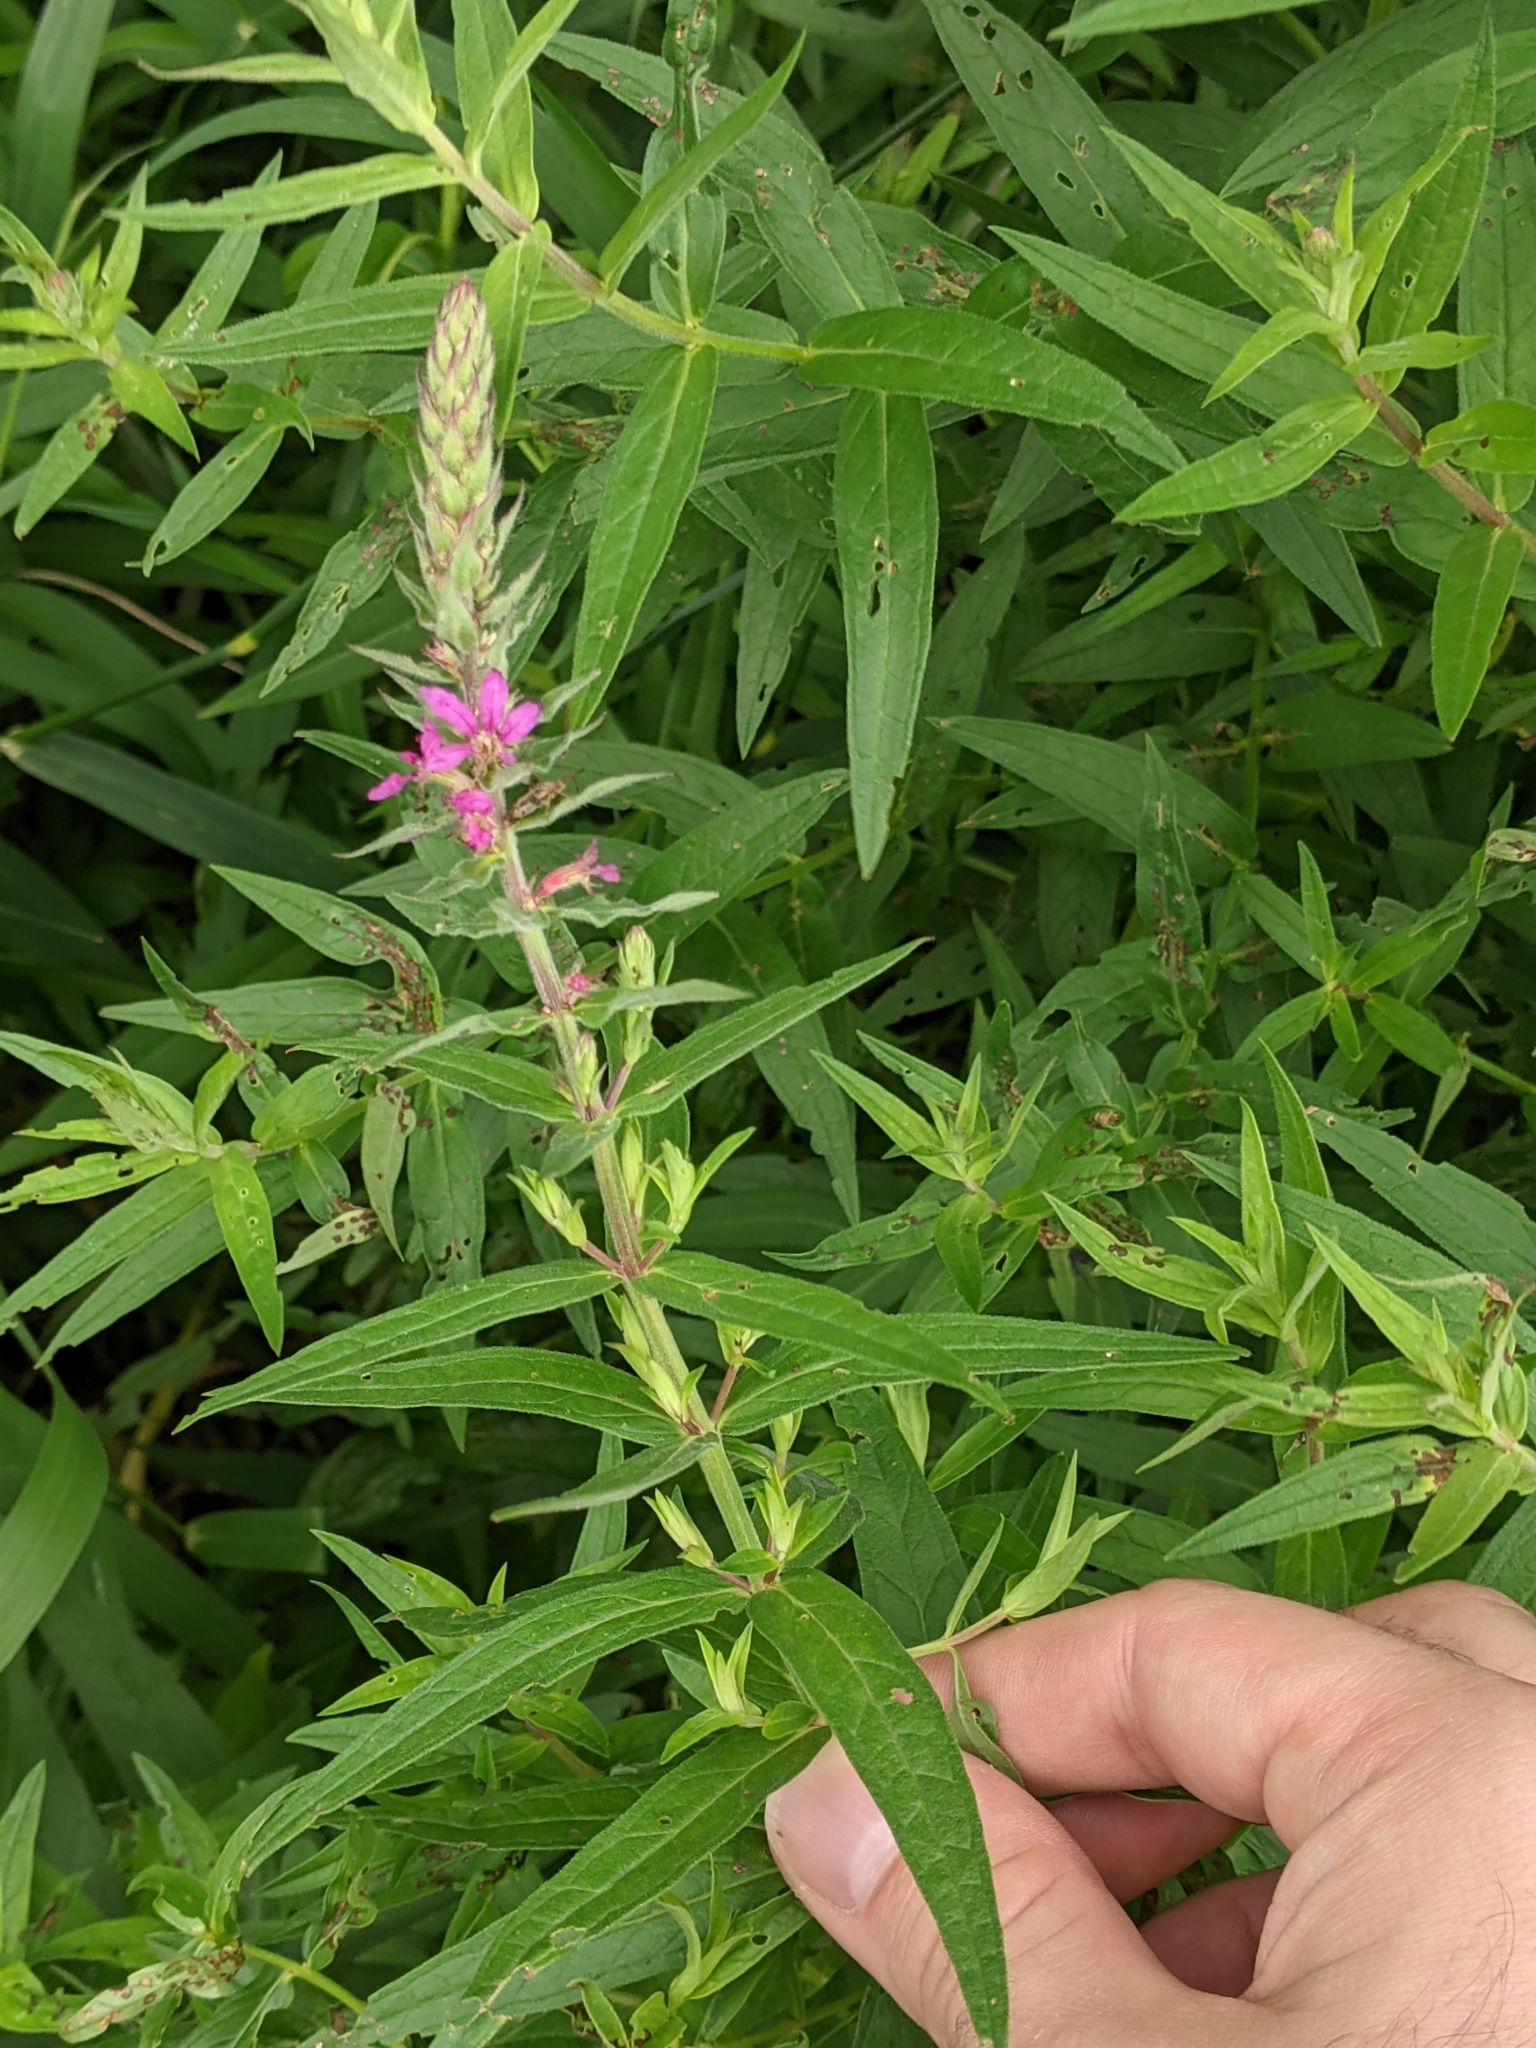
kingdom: Plantae
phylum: Tracheophyta
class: Magnoliopsida
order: Myrtales
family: Lythraceae
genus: Lythrum
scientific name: Lythrum salicaria
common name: Purple loosestrife
